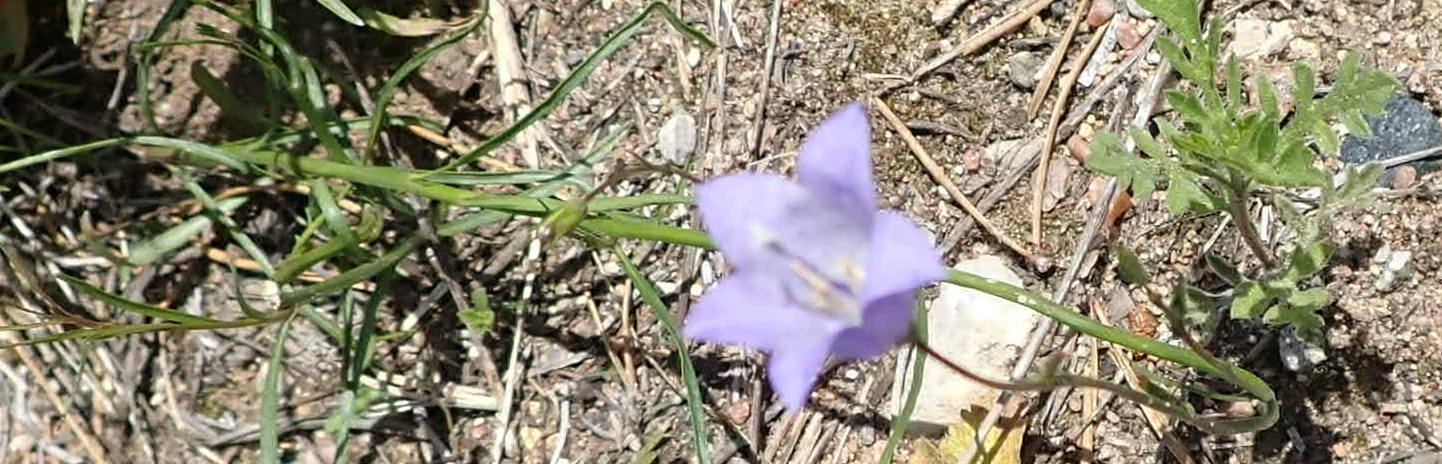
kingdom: Plantae
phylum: Tracheophyta
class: Magnoliopsida
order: Asterales
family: Campanulaceae
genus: Campanula
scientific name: Campanula petiolata
